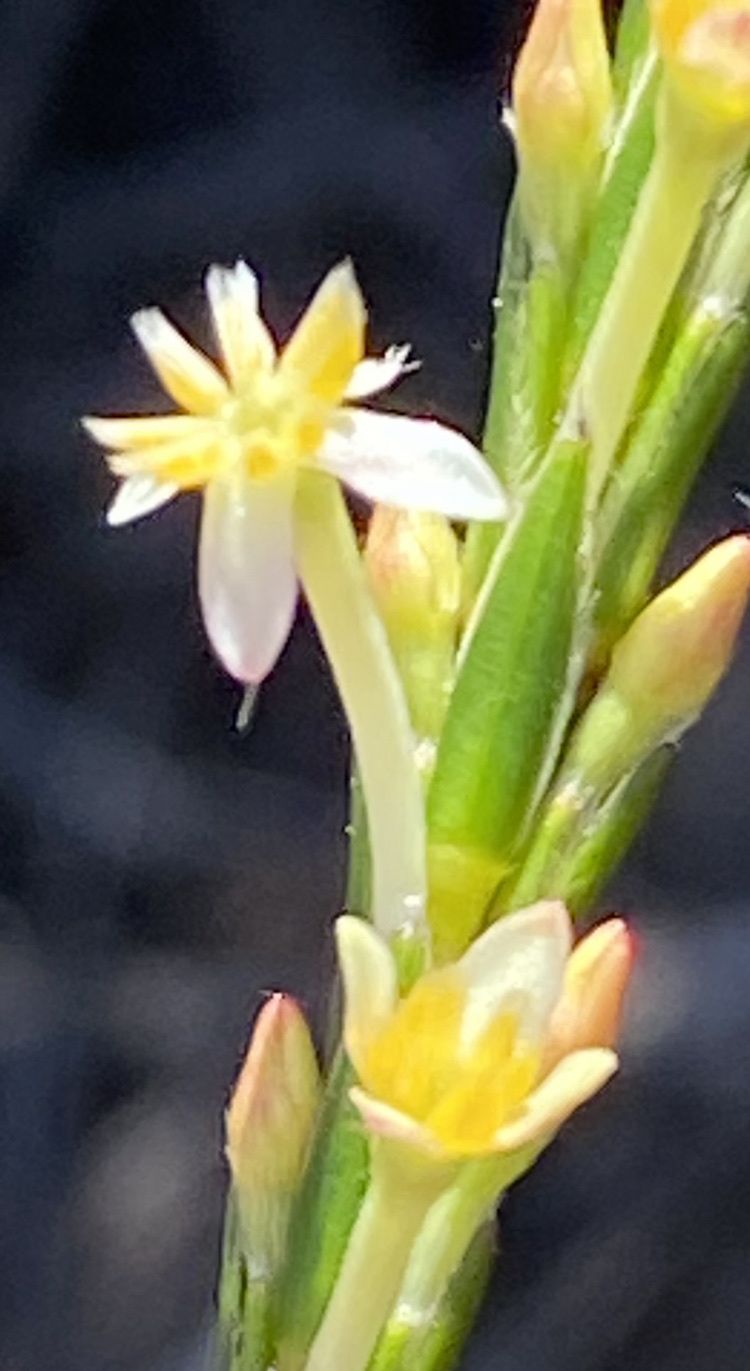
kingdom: Plantae
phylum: Tracheophyta
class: Magnoliopsida
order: Malvales
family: Thymelaeaceae
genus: Struthiola
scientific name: Struthiola ciliata
